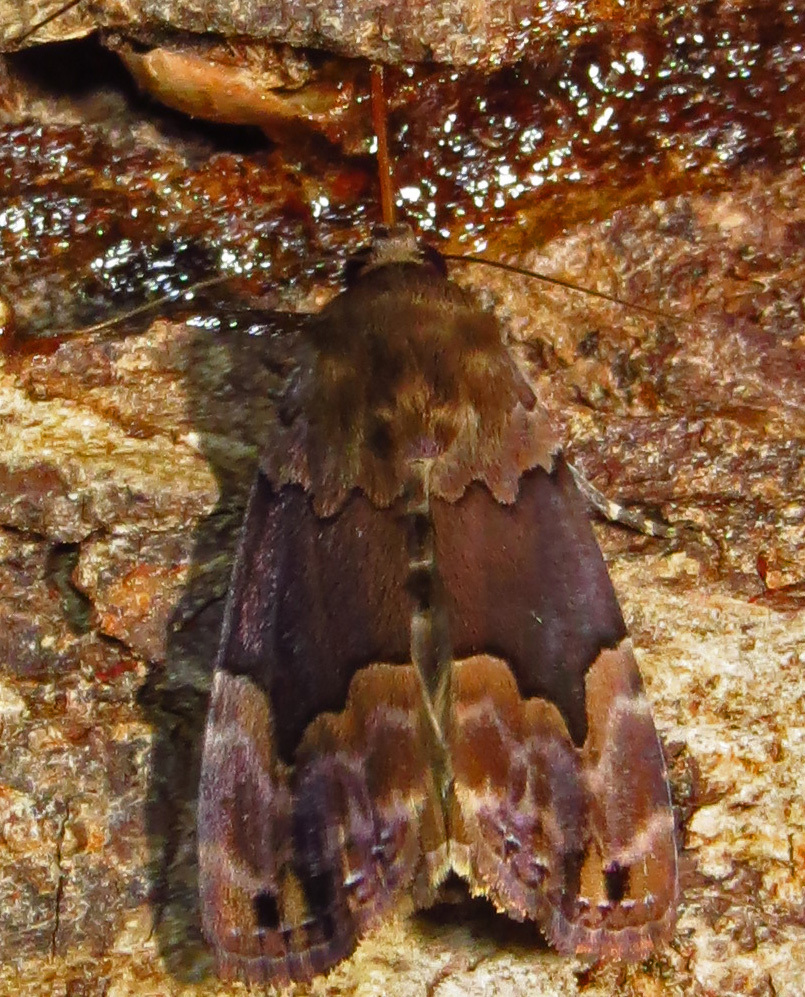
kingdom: Animalia
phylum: Arthropoda
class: Insecta
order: Lepidoptera
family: Erebidae
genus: Dinumma
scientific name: Dinumma deponens
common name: Purplish moth
